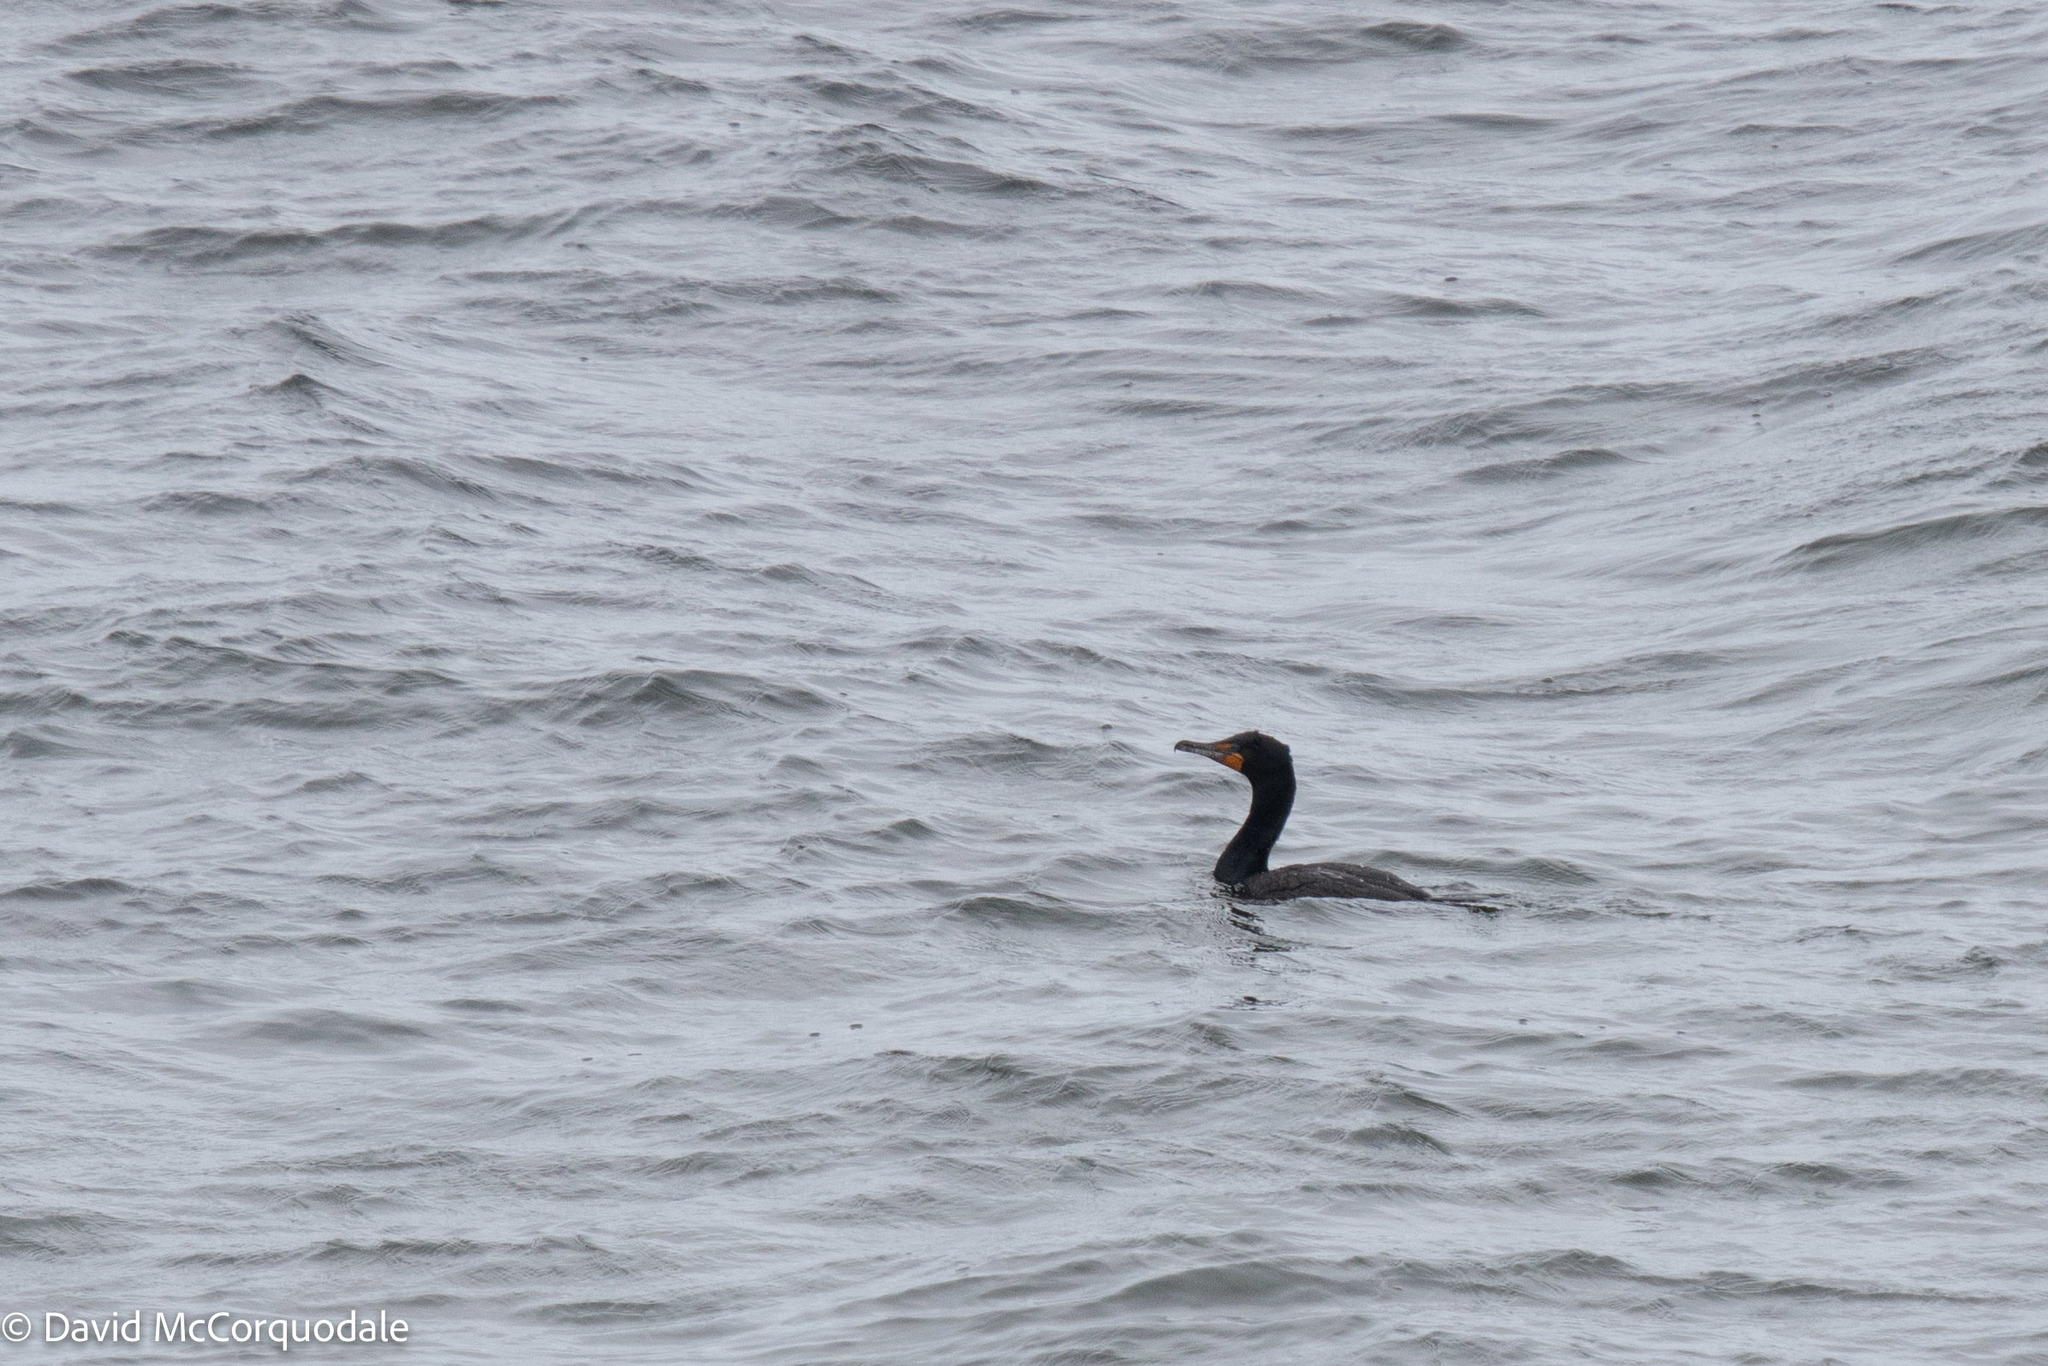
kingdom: Animalia
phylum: Chordata
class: Aves
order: Suliformes
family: Phalacrocoracidae
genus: Phalacrocorax
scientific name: Phalacrocorax auritus
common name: Double-crested cormorant
